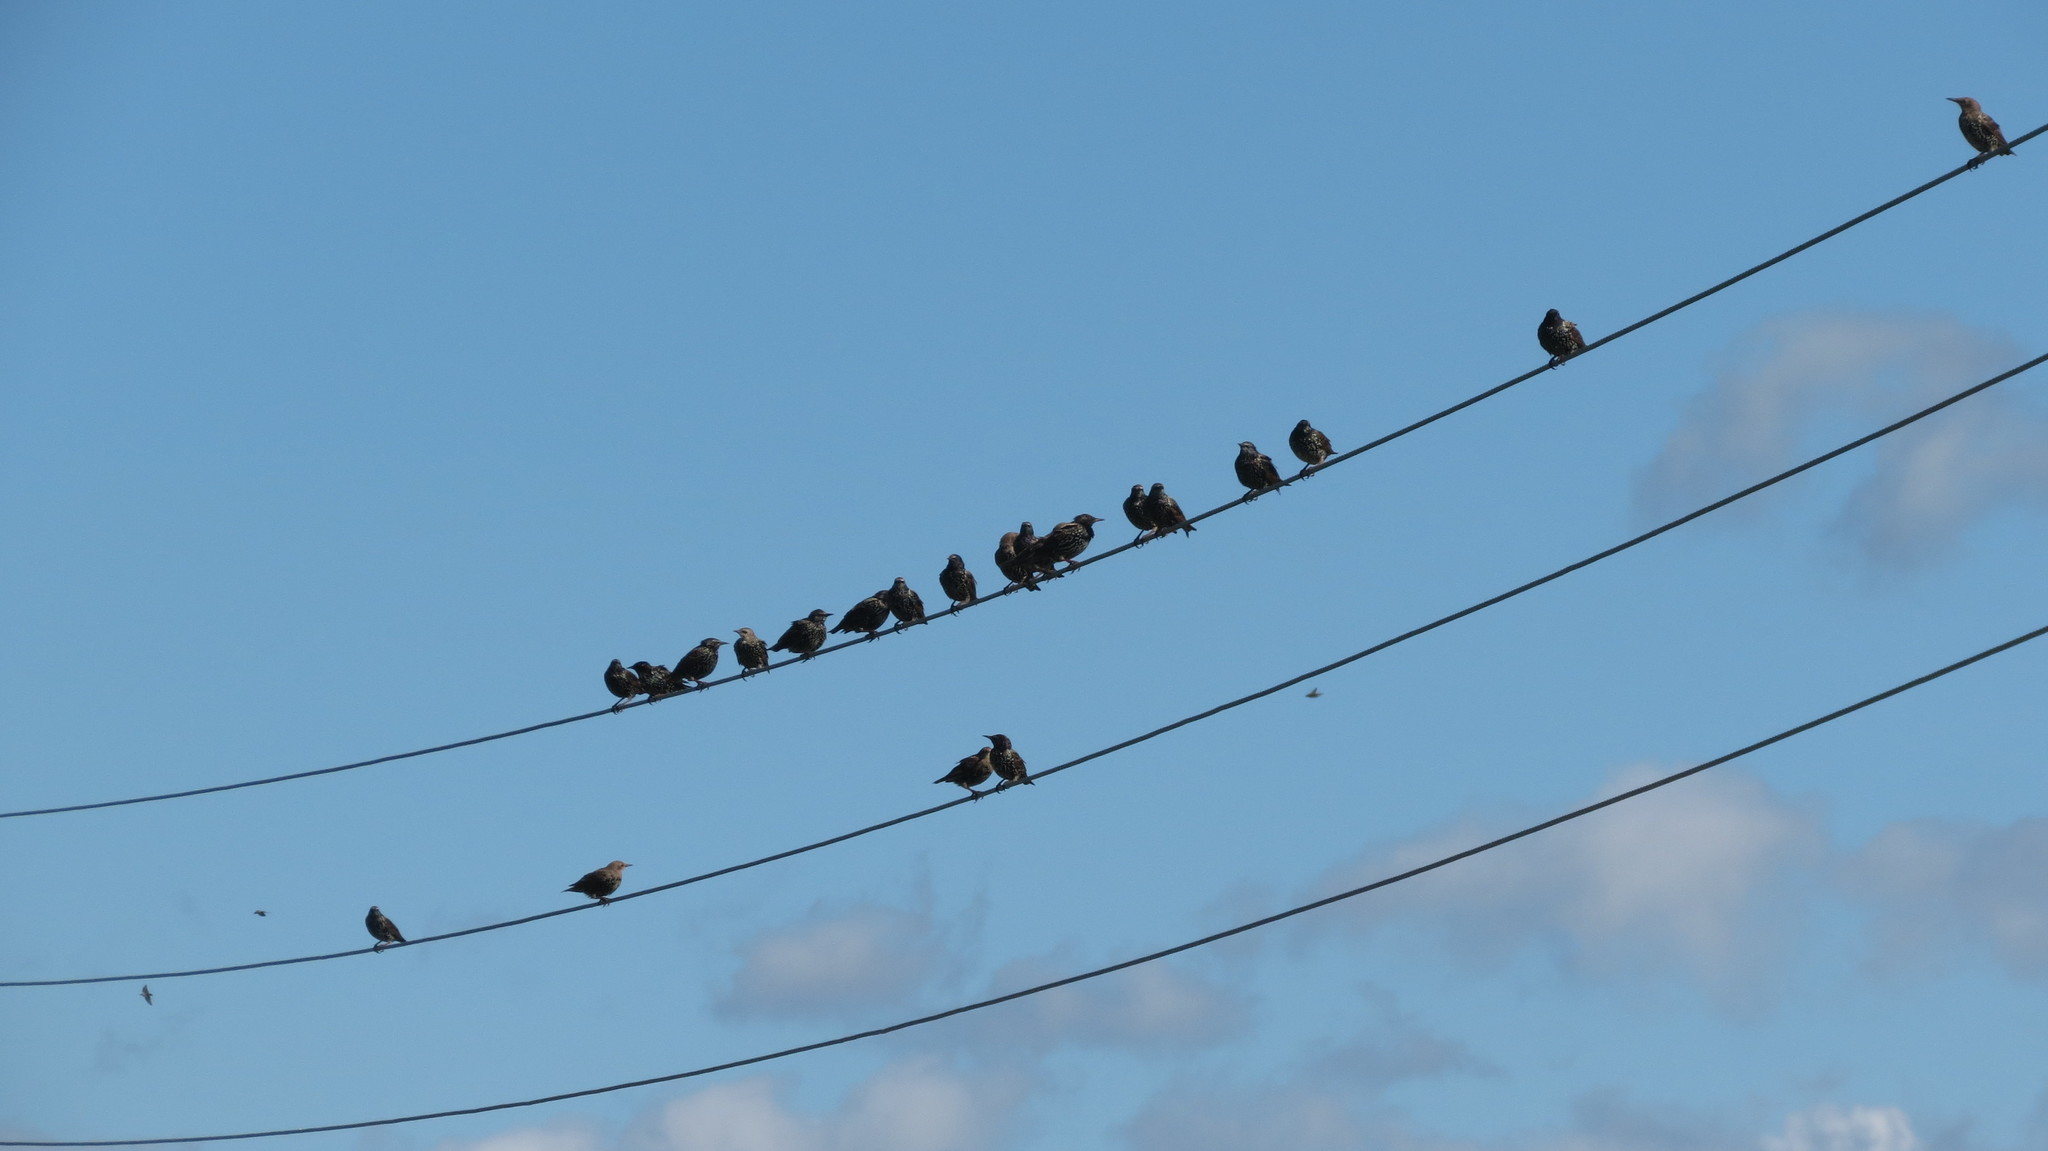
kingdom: Animalia
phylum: Chordata
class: Aves
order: Passeriformes
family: Sturnidae
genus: Sturnus
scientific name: Sturnus vulgaris
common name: Common starling
